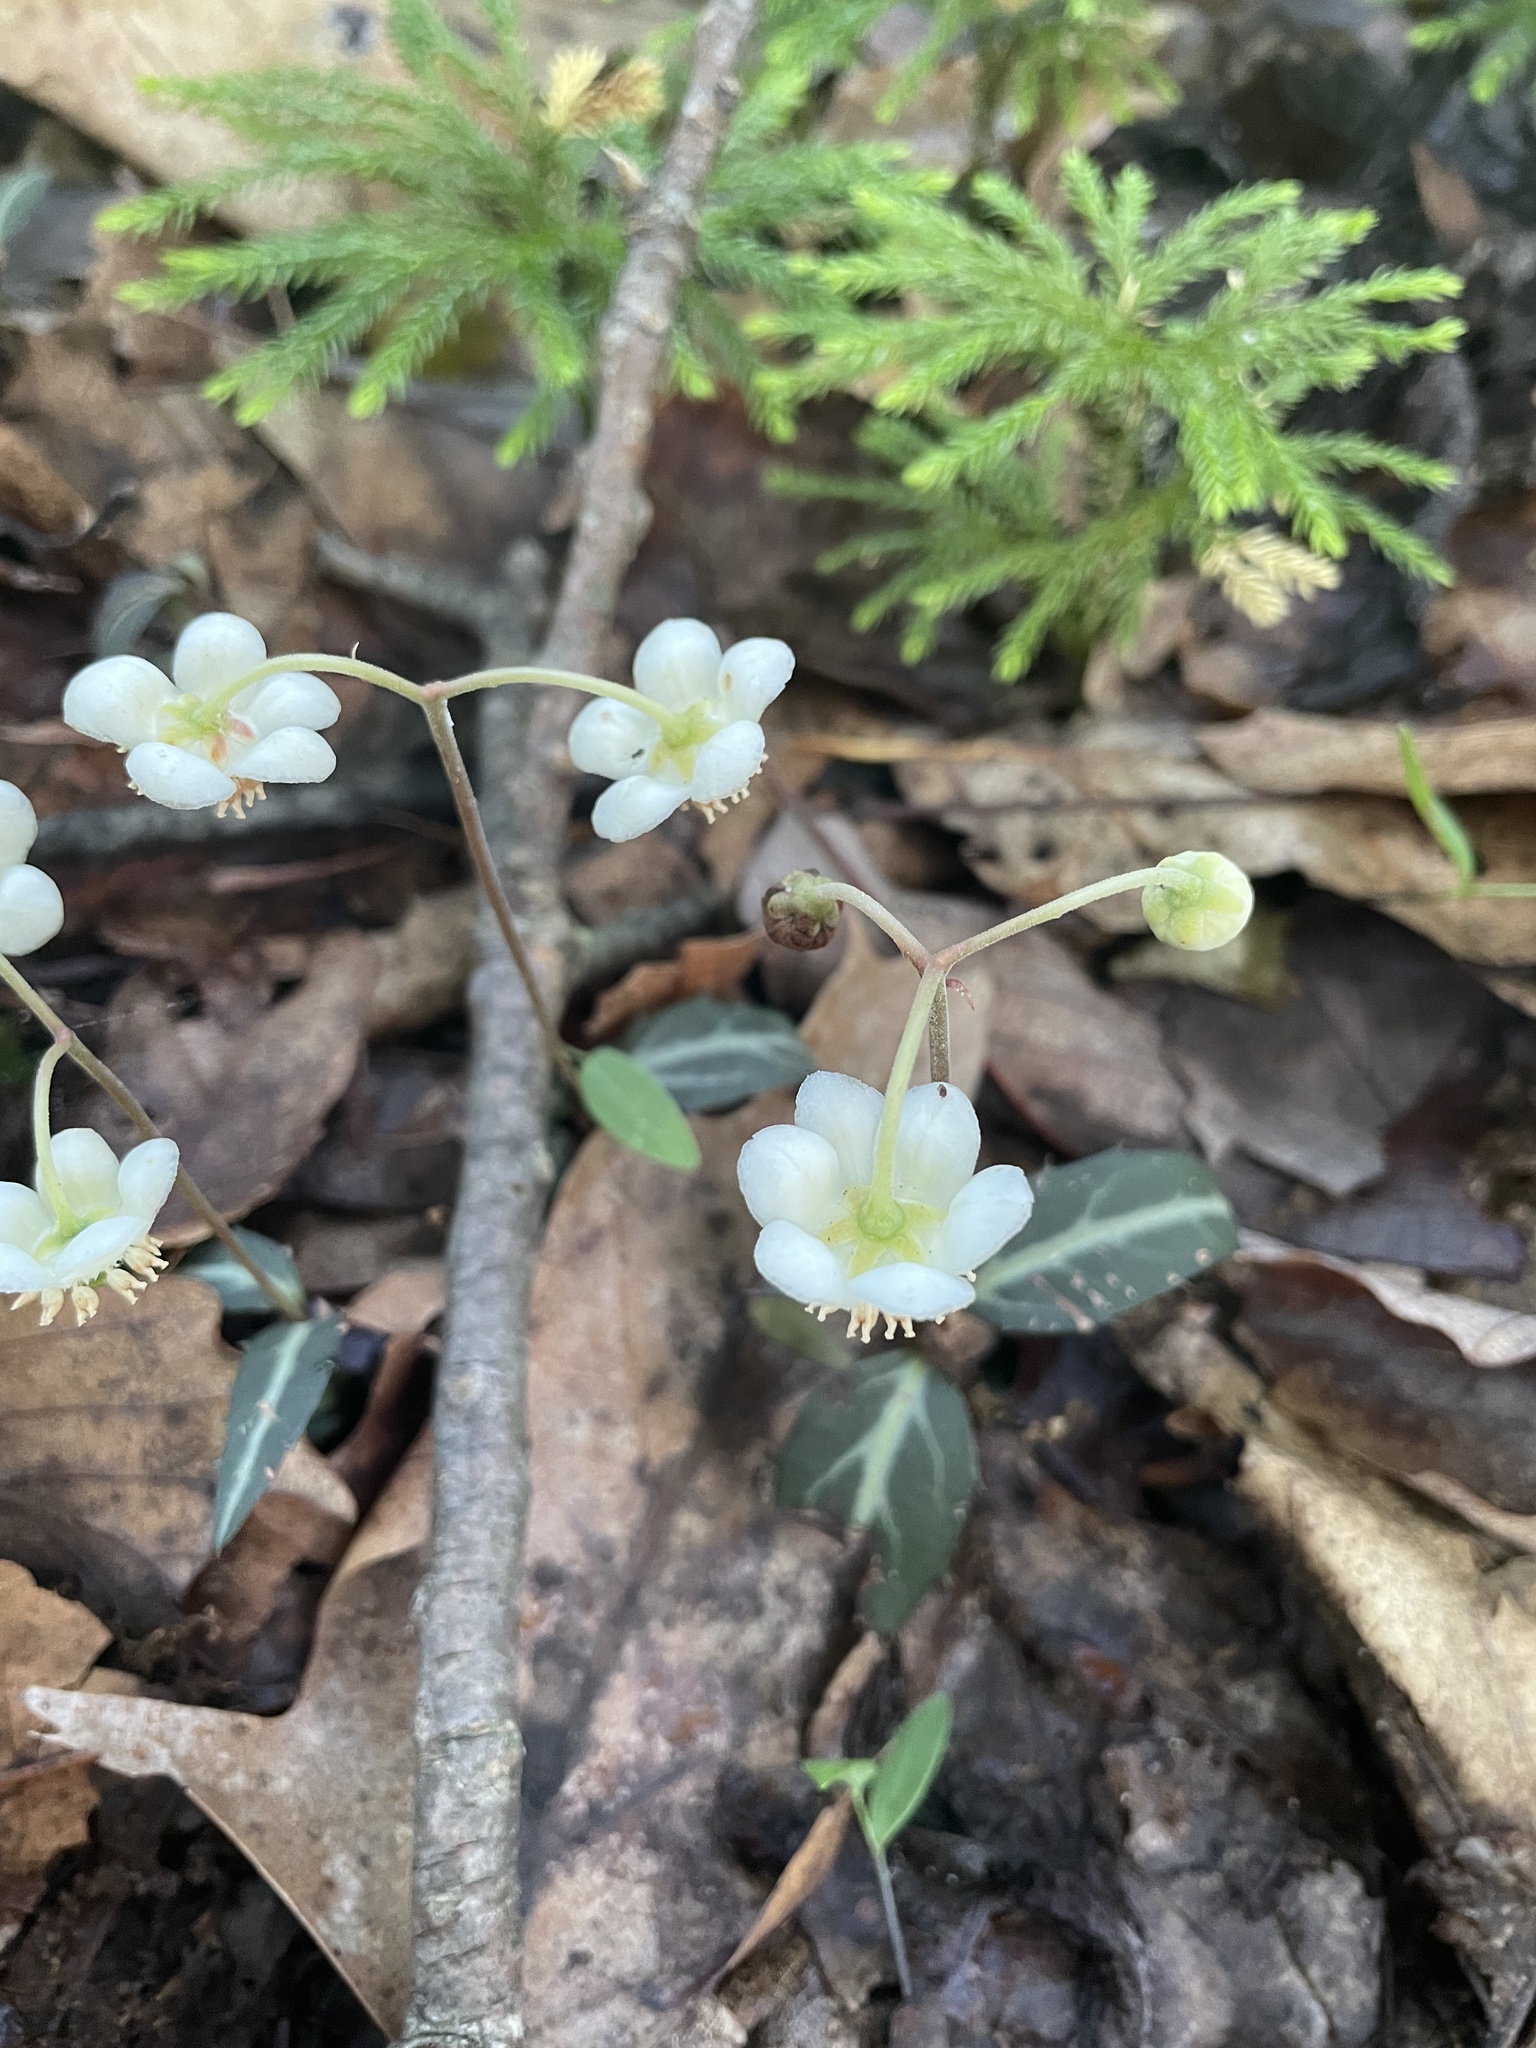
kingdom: Plantae
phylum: Tracheophyta
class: Magnoliopsida
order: Ericales
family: Ericaceae
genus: Chimaphila
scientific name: Chimaphila maculata
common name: Spotted pipsissewa
